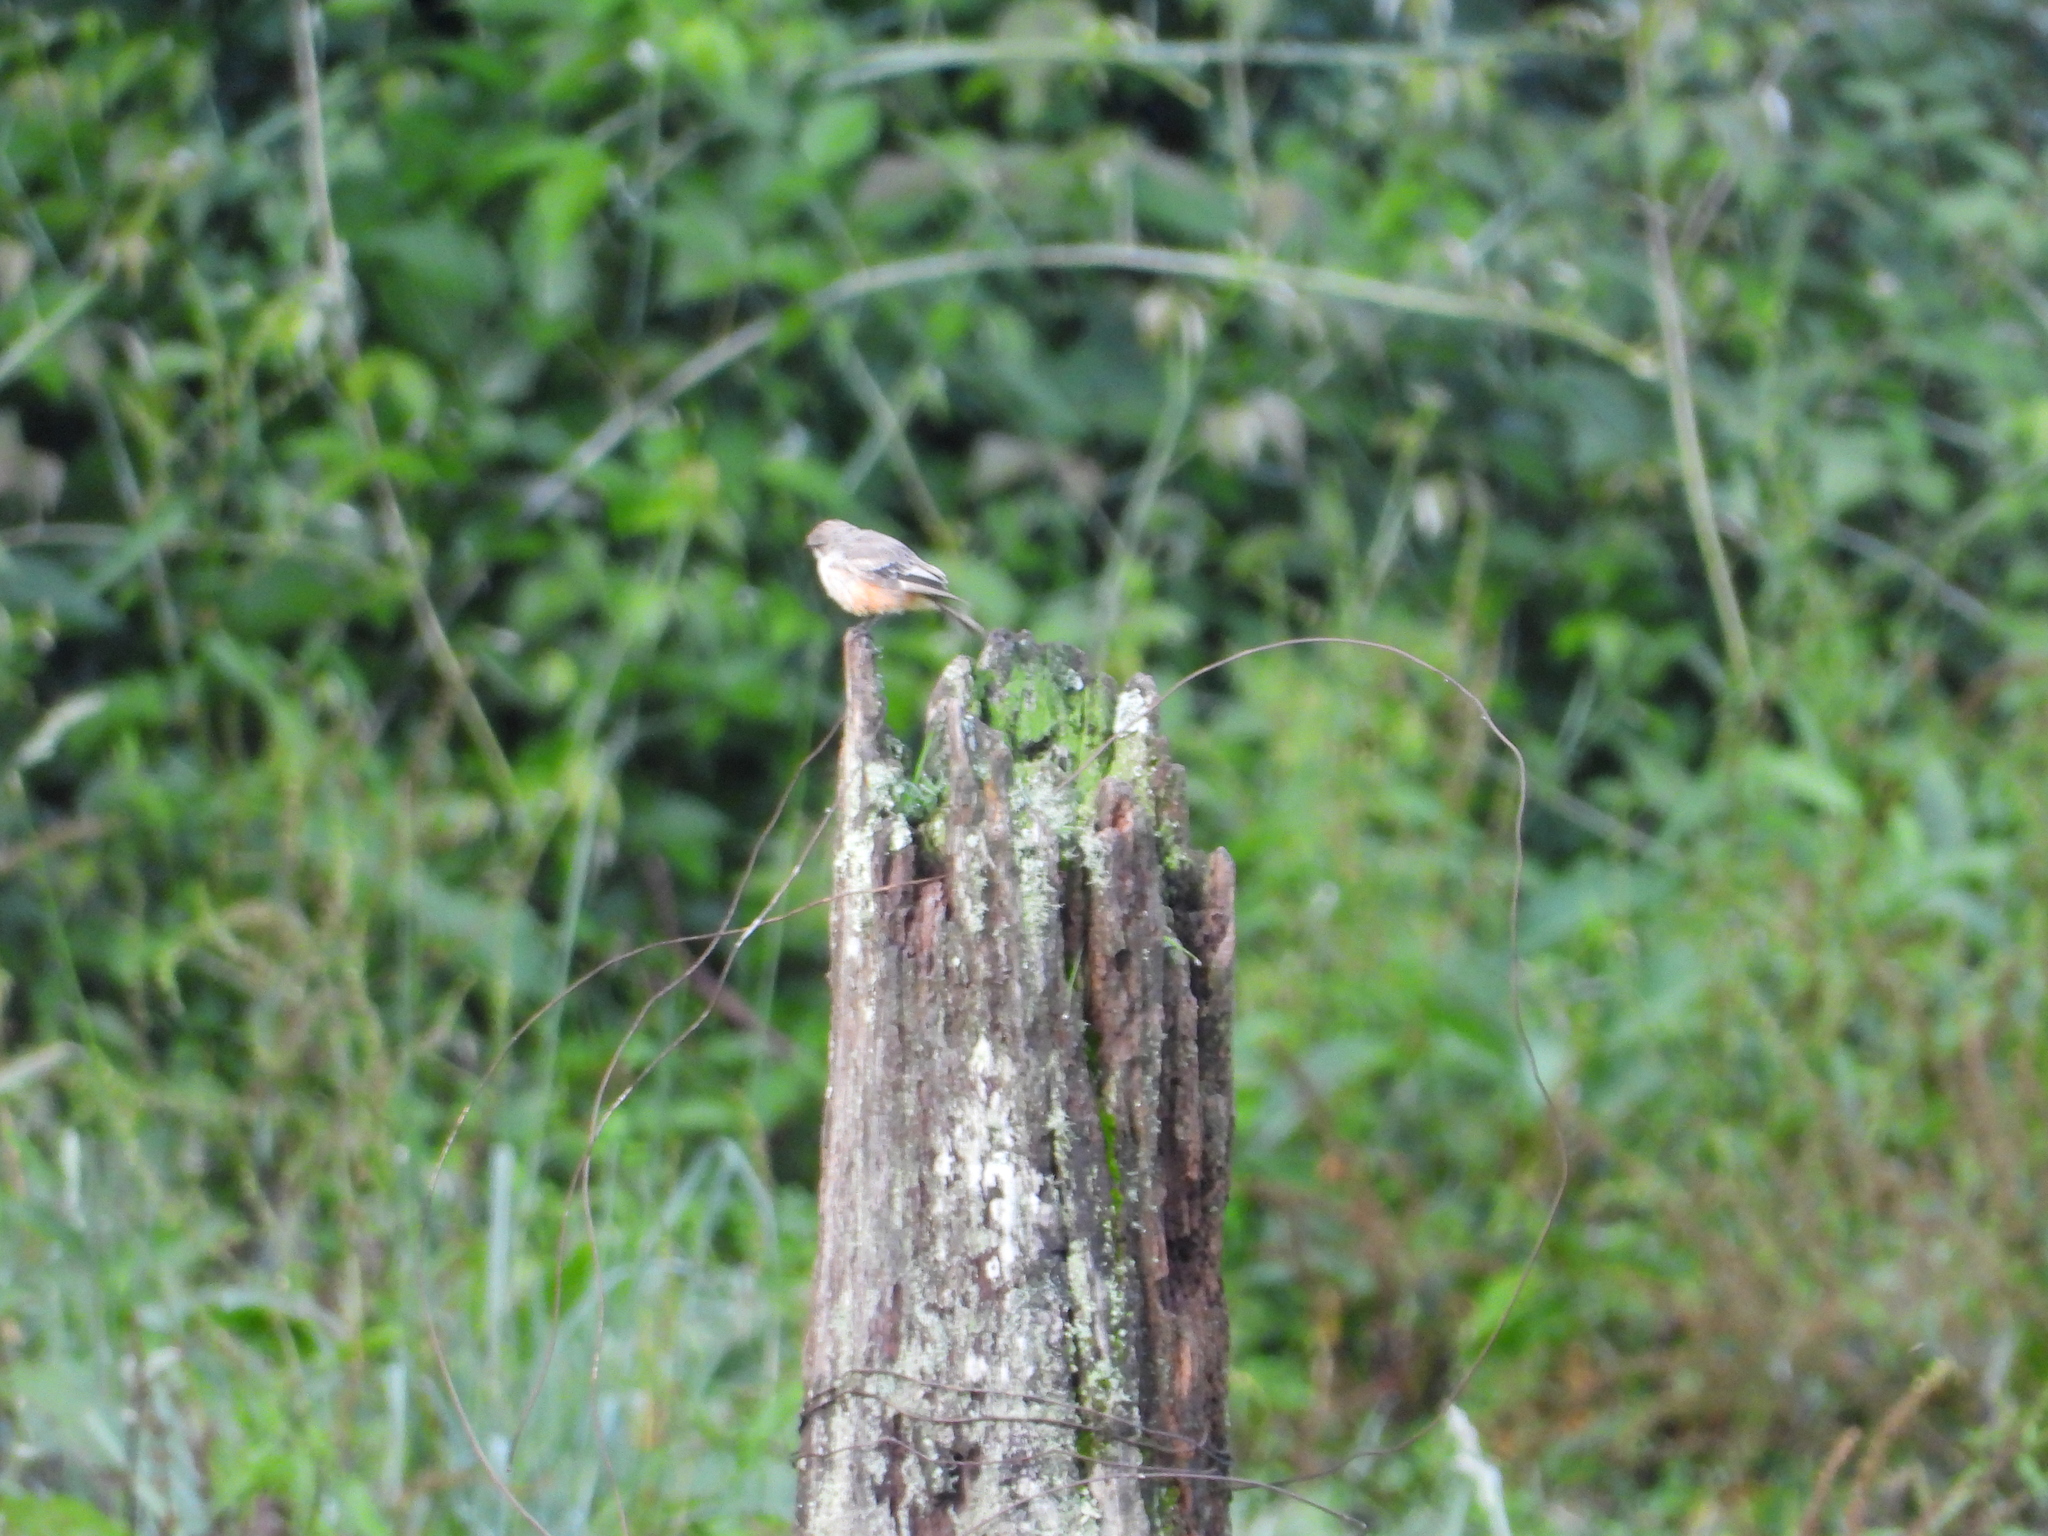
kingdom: Animalia
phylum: Chordata
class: Aves
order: Passeriformes
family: Tyrannidae
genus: Pyrocephalus
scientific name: Pyrocephalus rubinus
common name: Vermilion flycatcher
